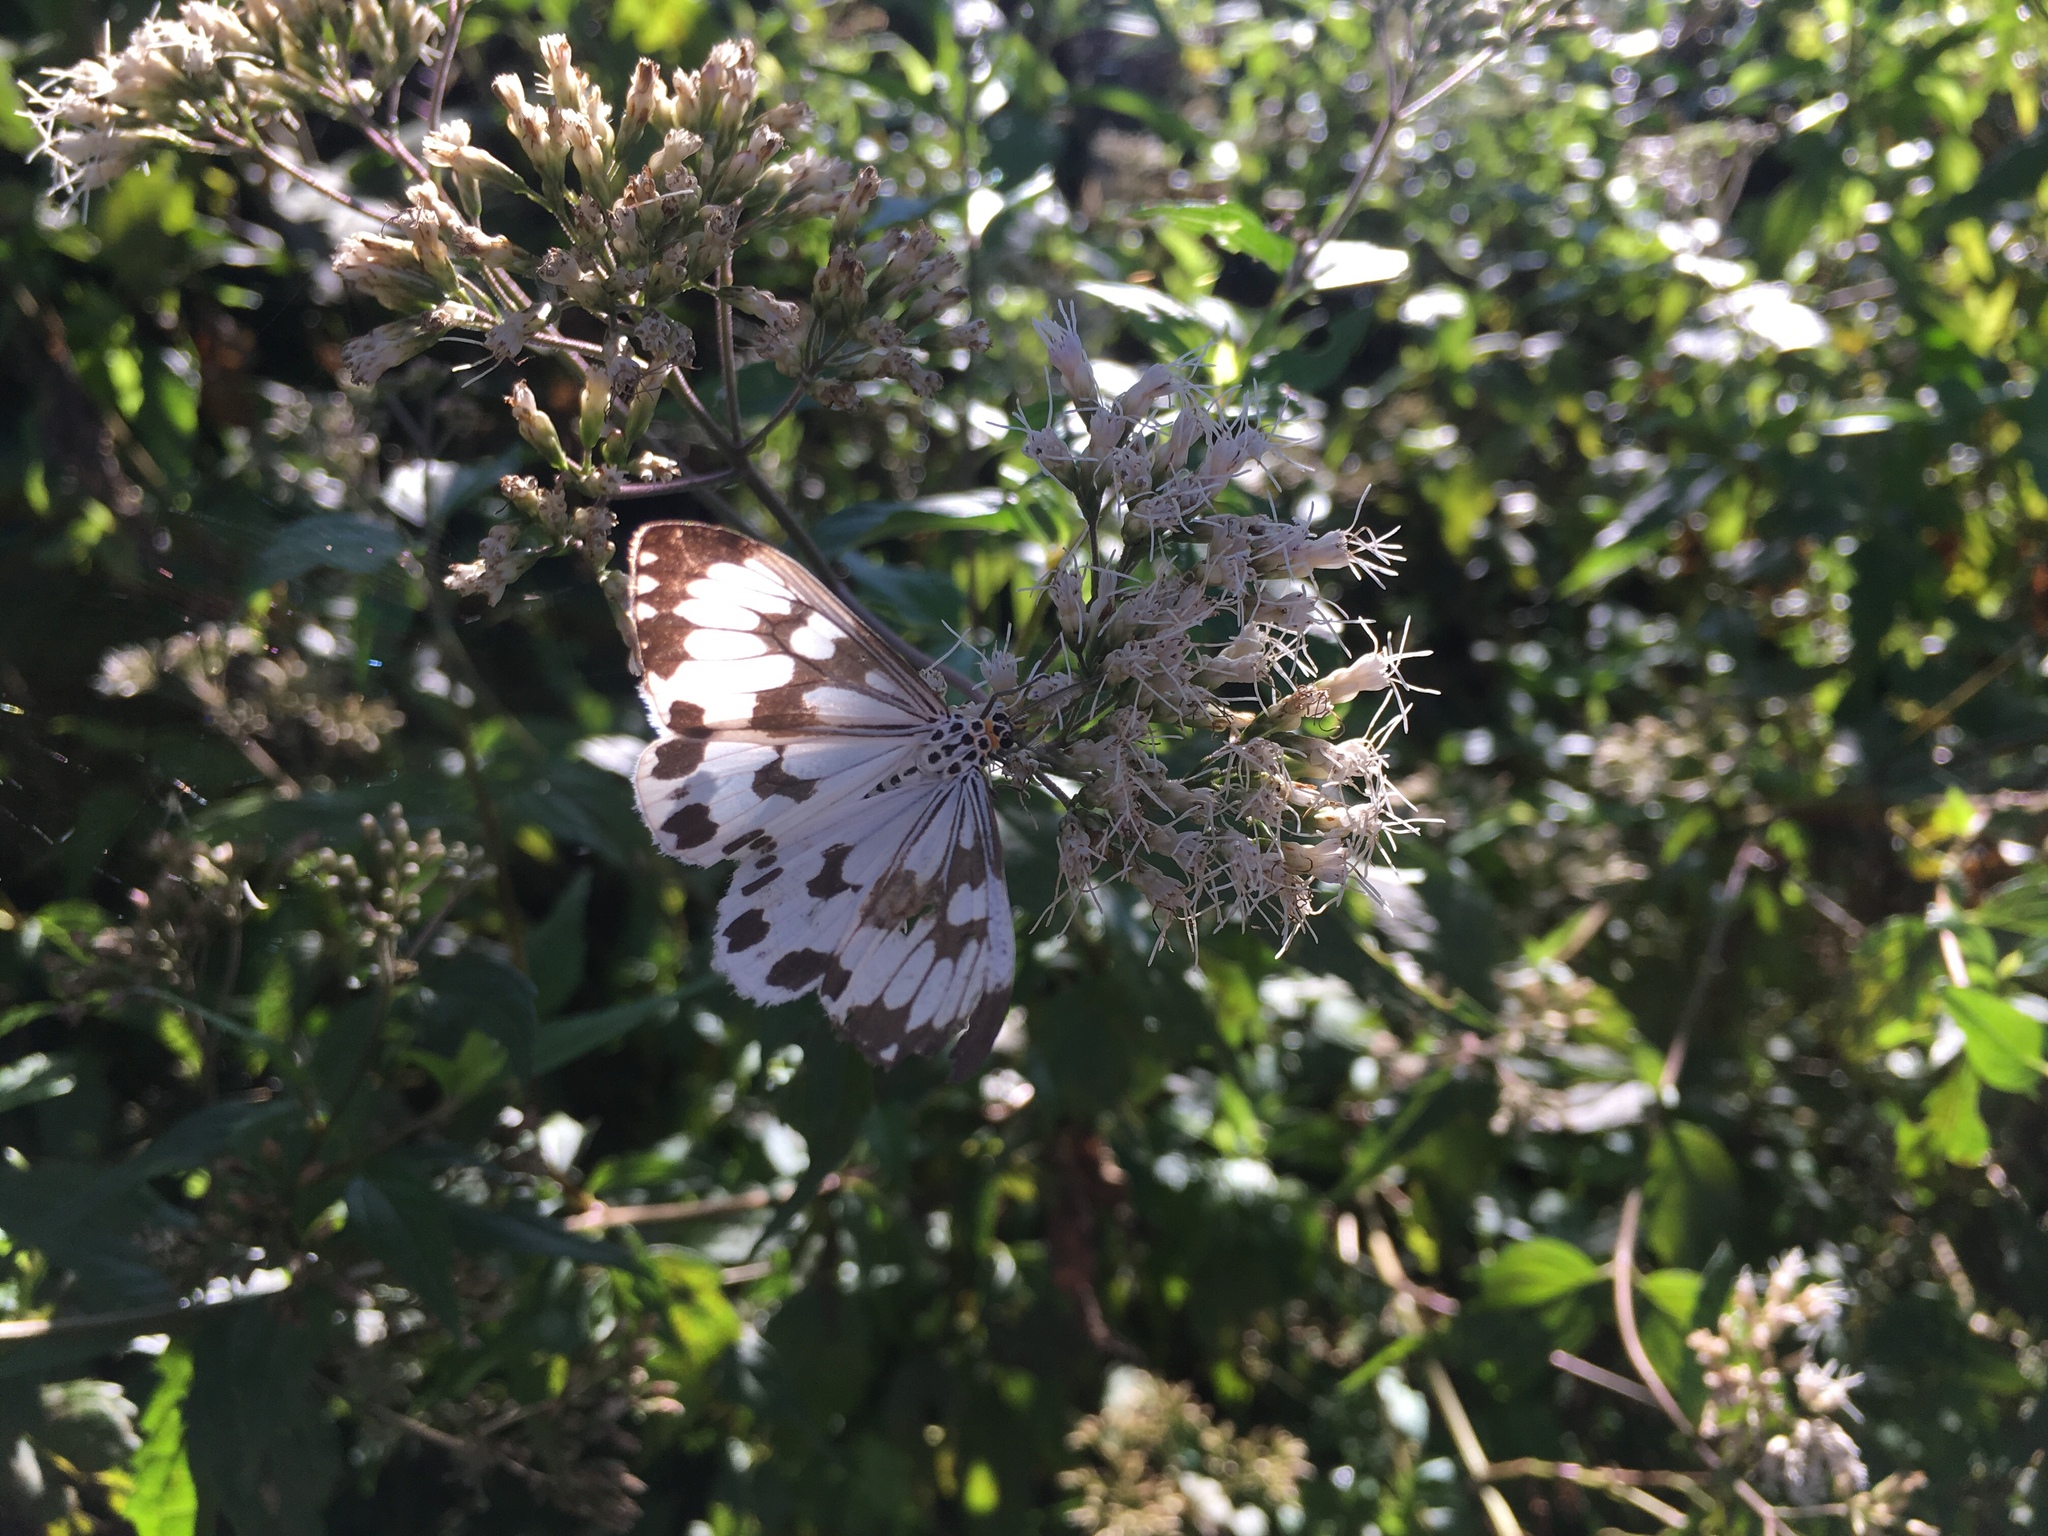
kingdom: Animalia
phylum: Arthropoda
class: Insecta
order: Lepidoptera
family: Erebidae
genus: Nyctemera
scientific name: Nyctemera adversata
